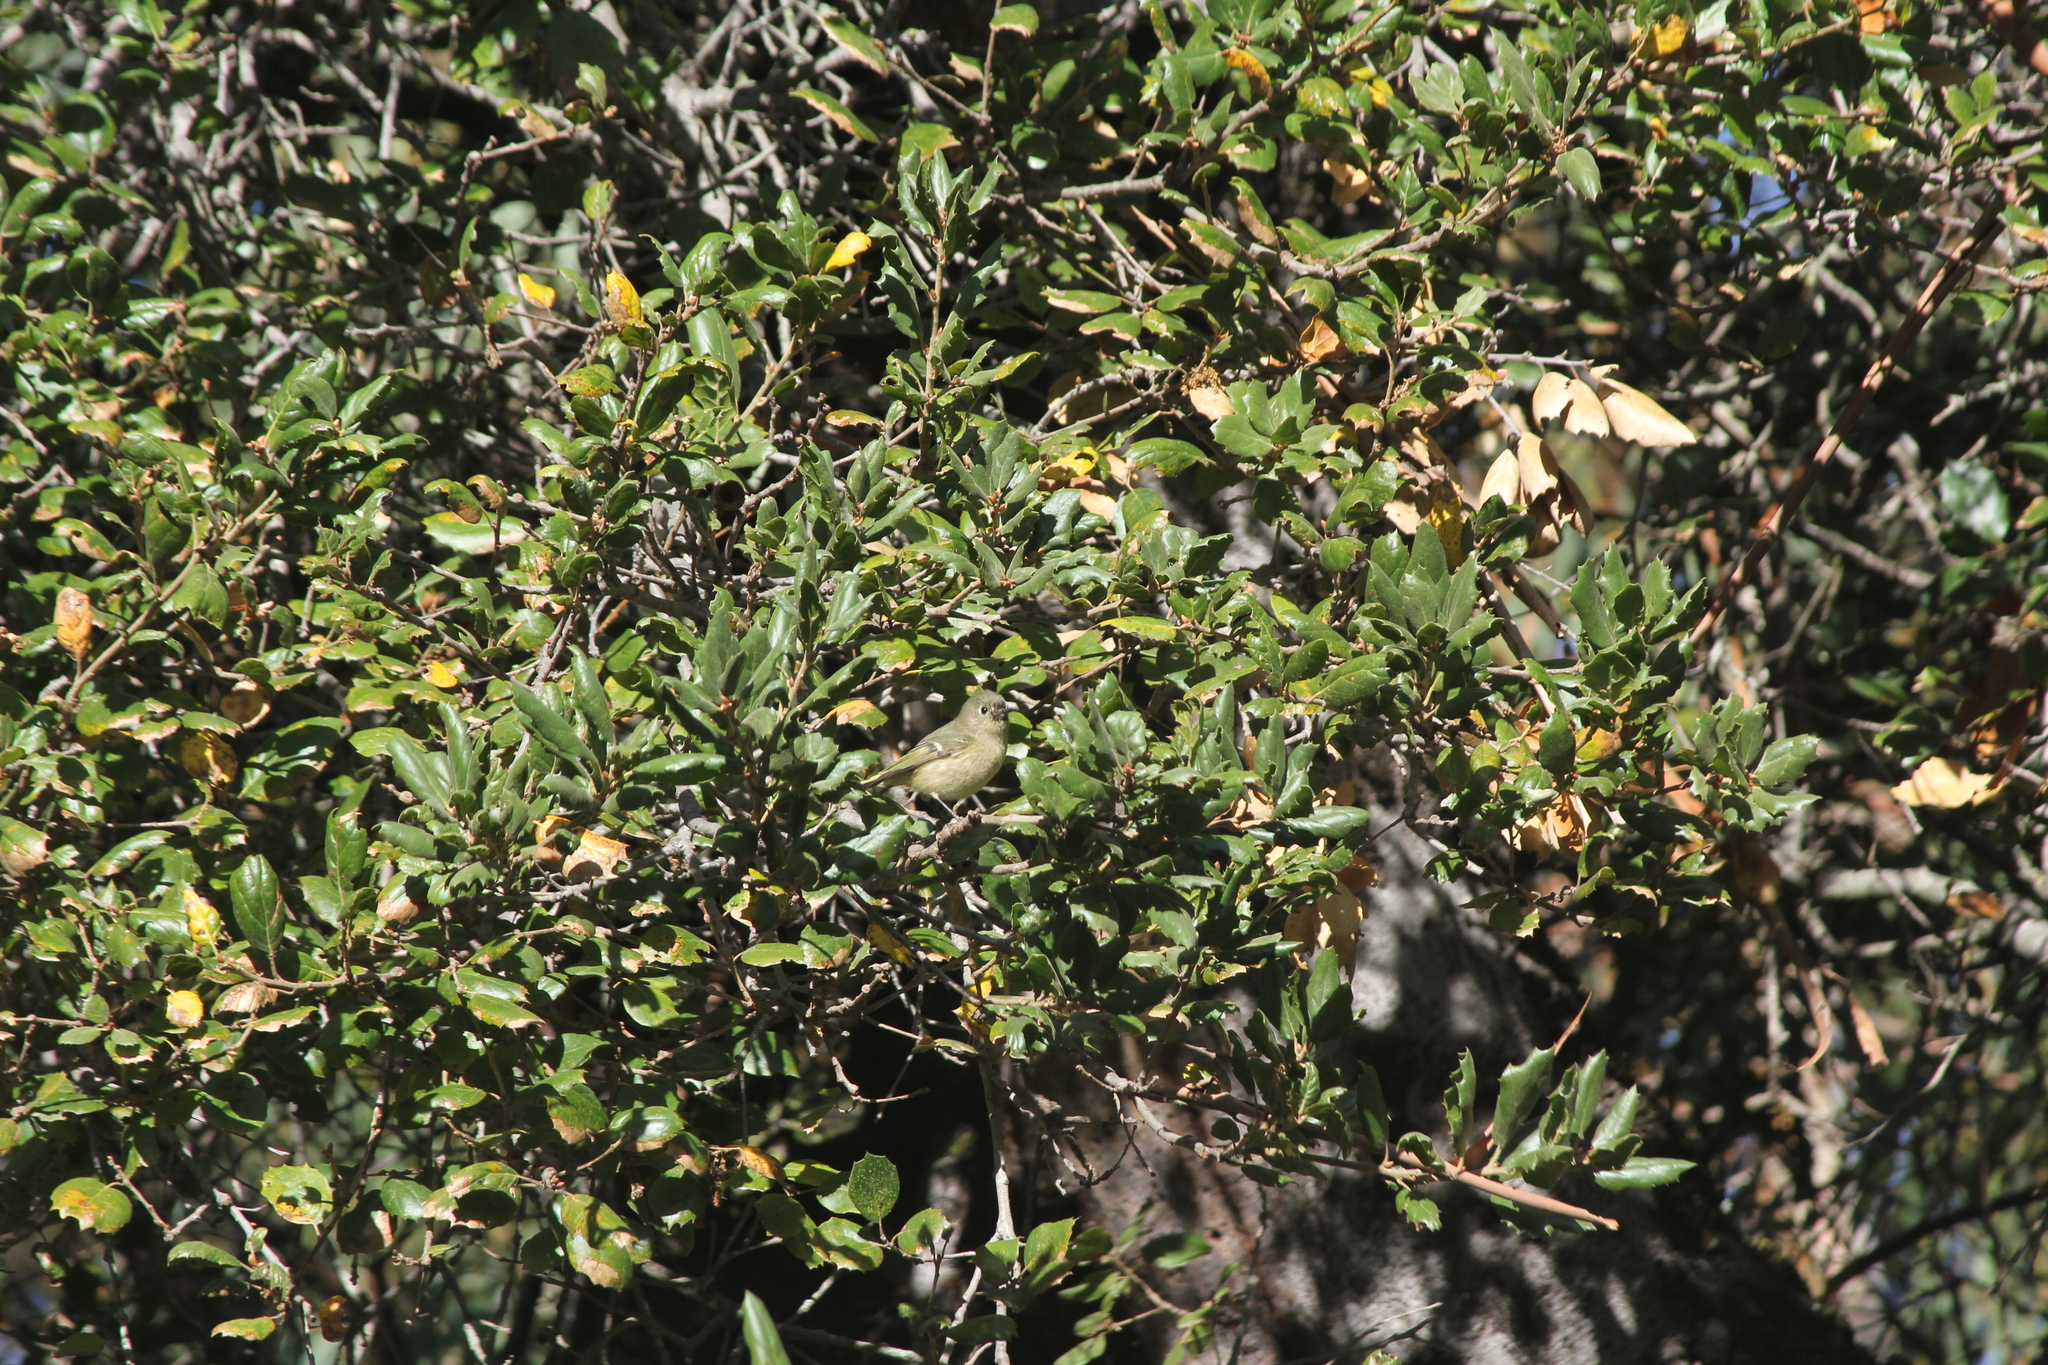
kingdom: Animalia
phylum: Chordata
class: Aves
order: Passeriformes
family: Regulidae
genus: Regulus
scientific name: Regulus calendula
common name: Ruby-crowned kinglet
